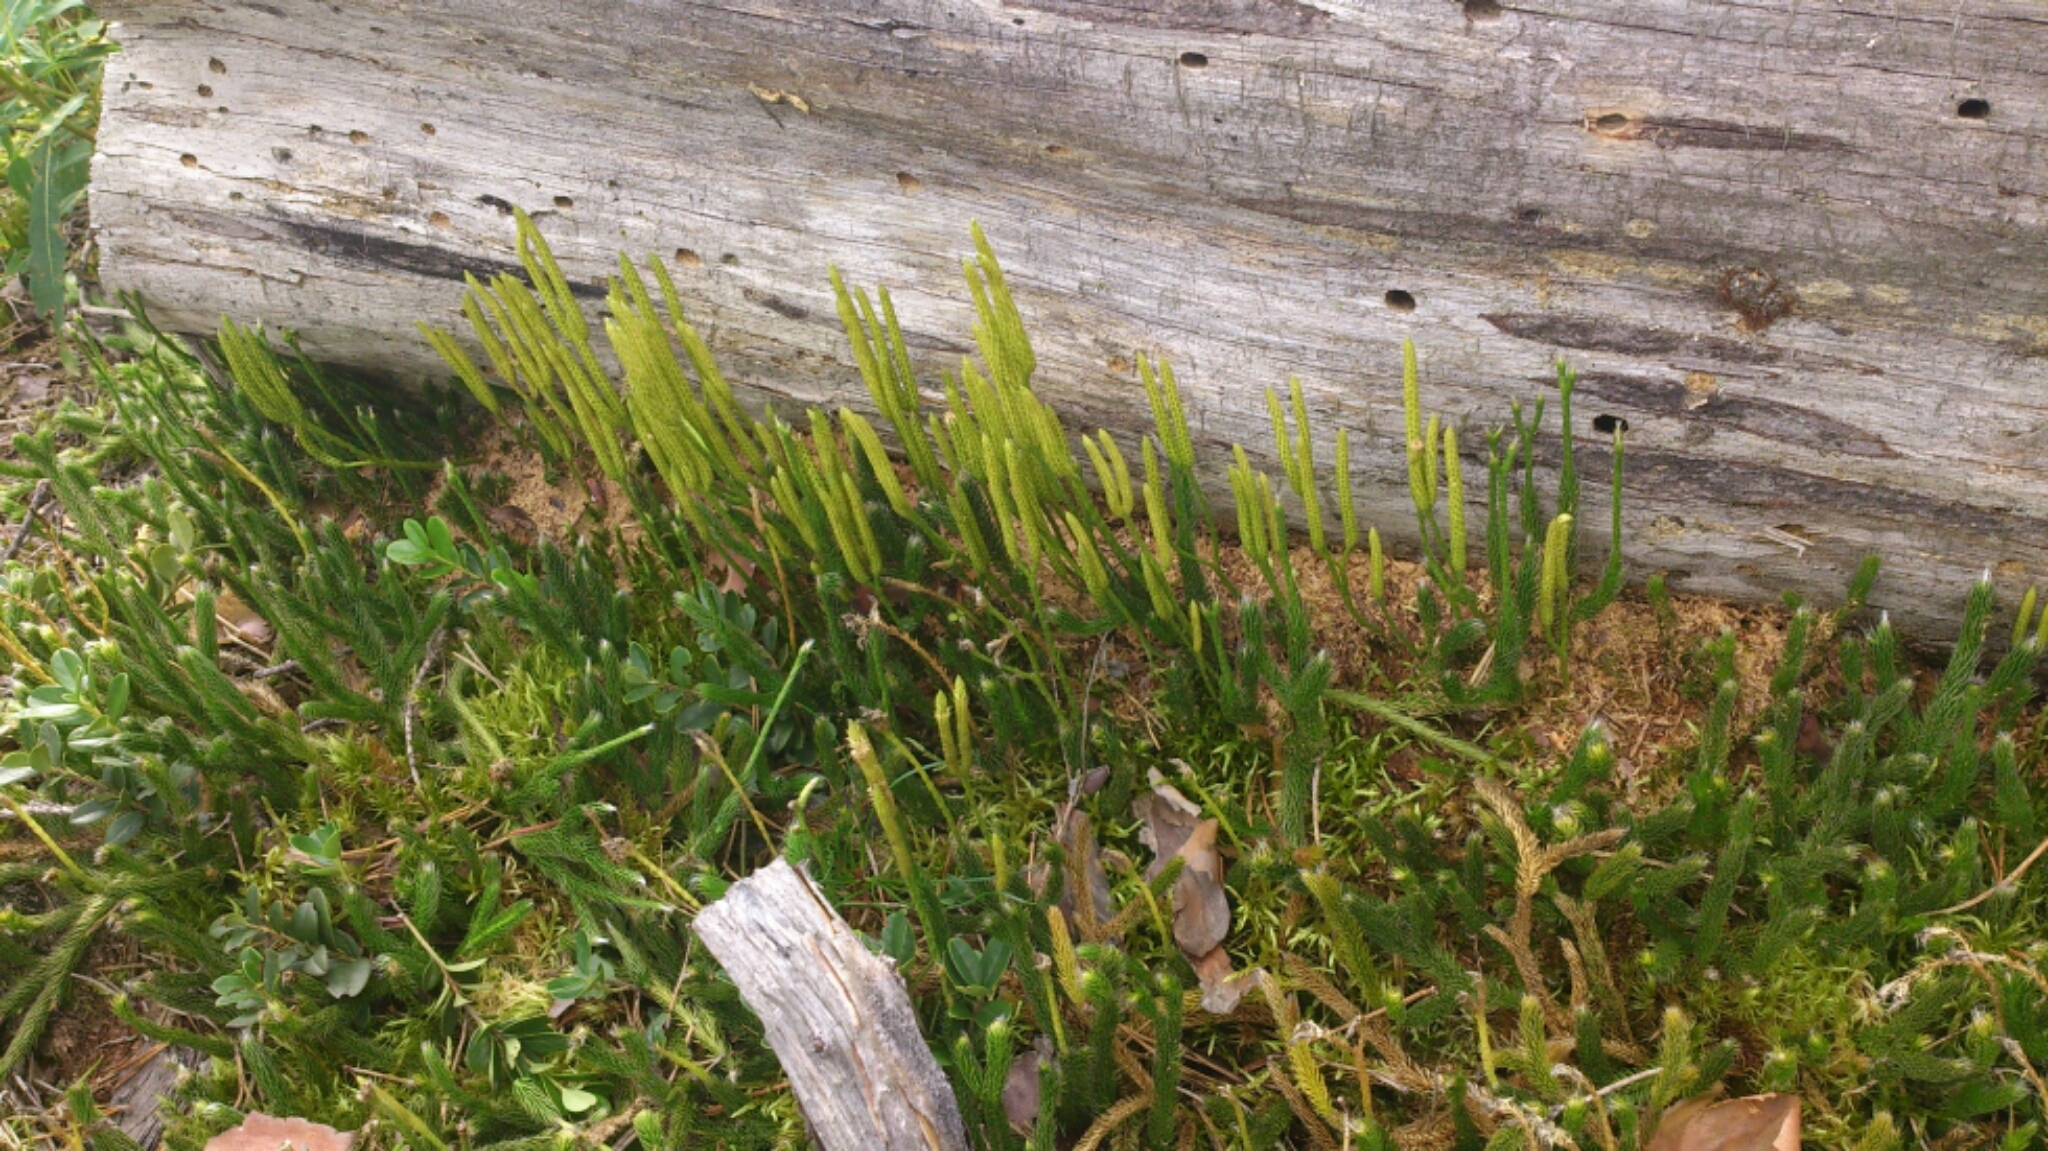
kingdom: Plantae
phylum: Tracheophyta
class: Lycopodiopsida
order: Lycopodiales
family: Lycopodiaceae
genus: Lycopodium
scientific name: Lycopodium clavatum
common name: Stag's-horn clubmoss
